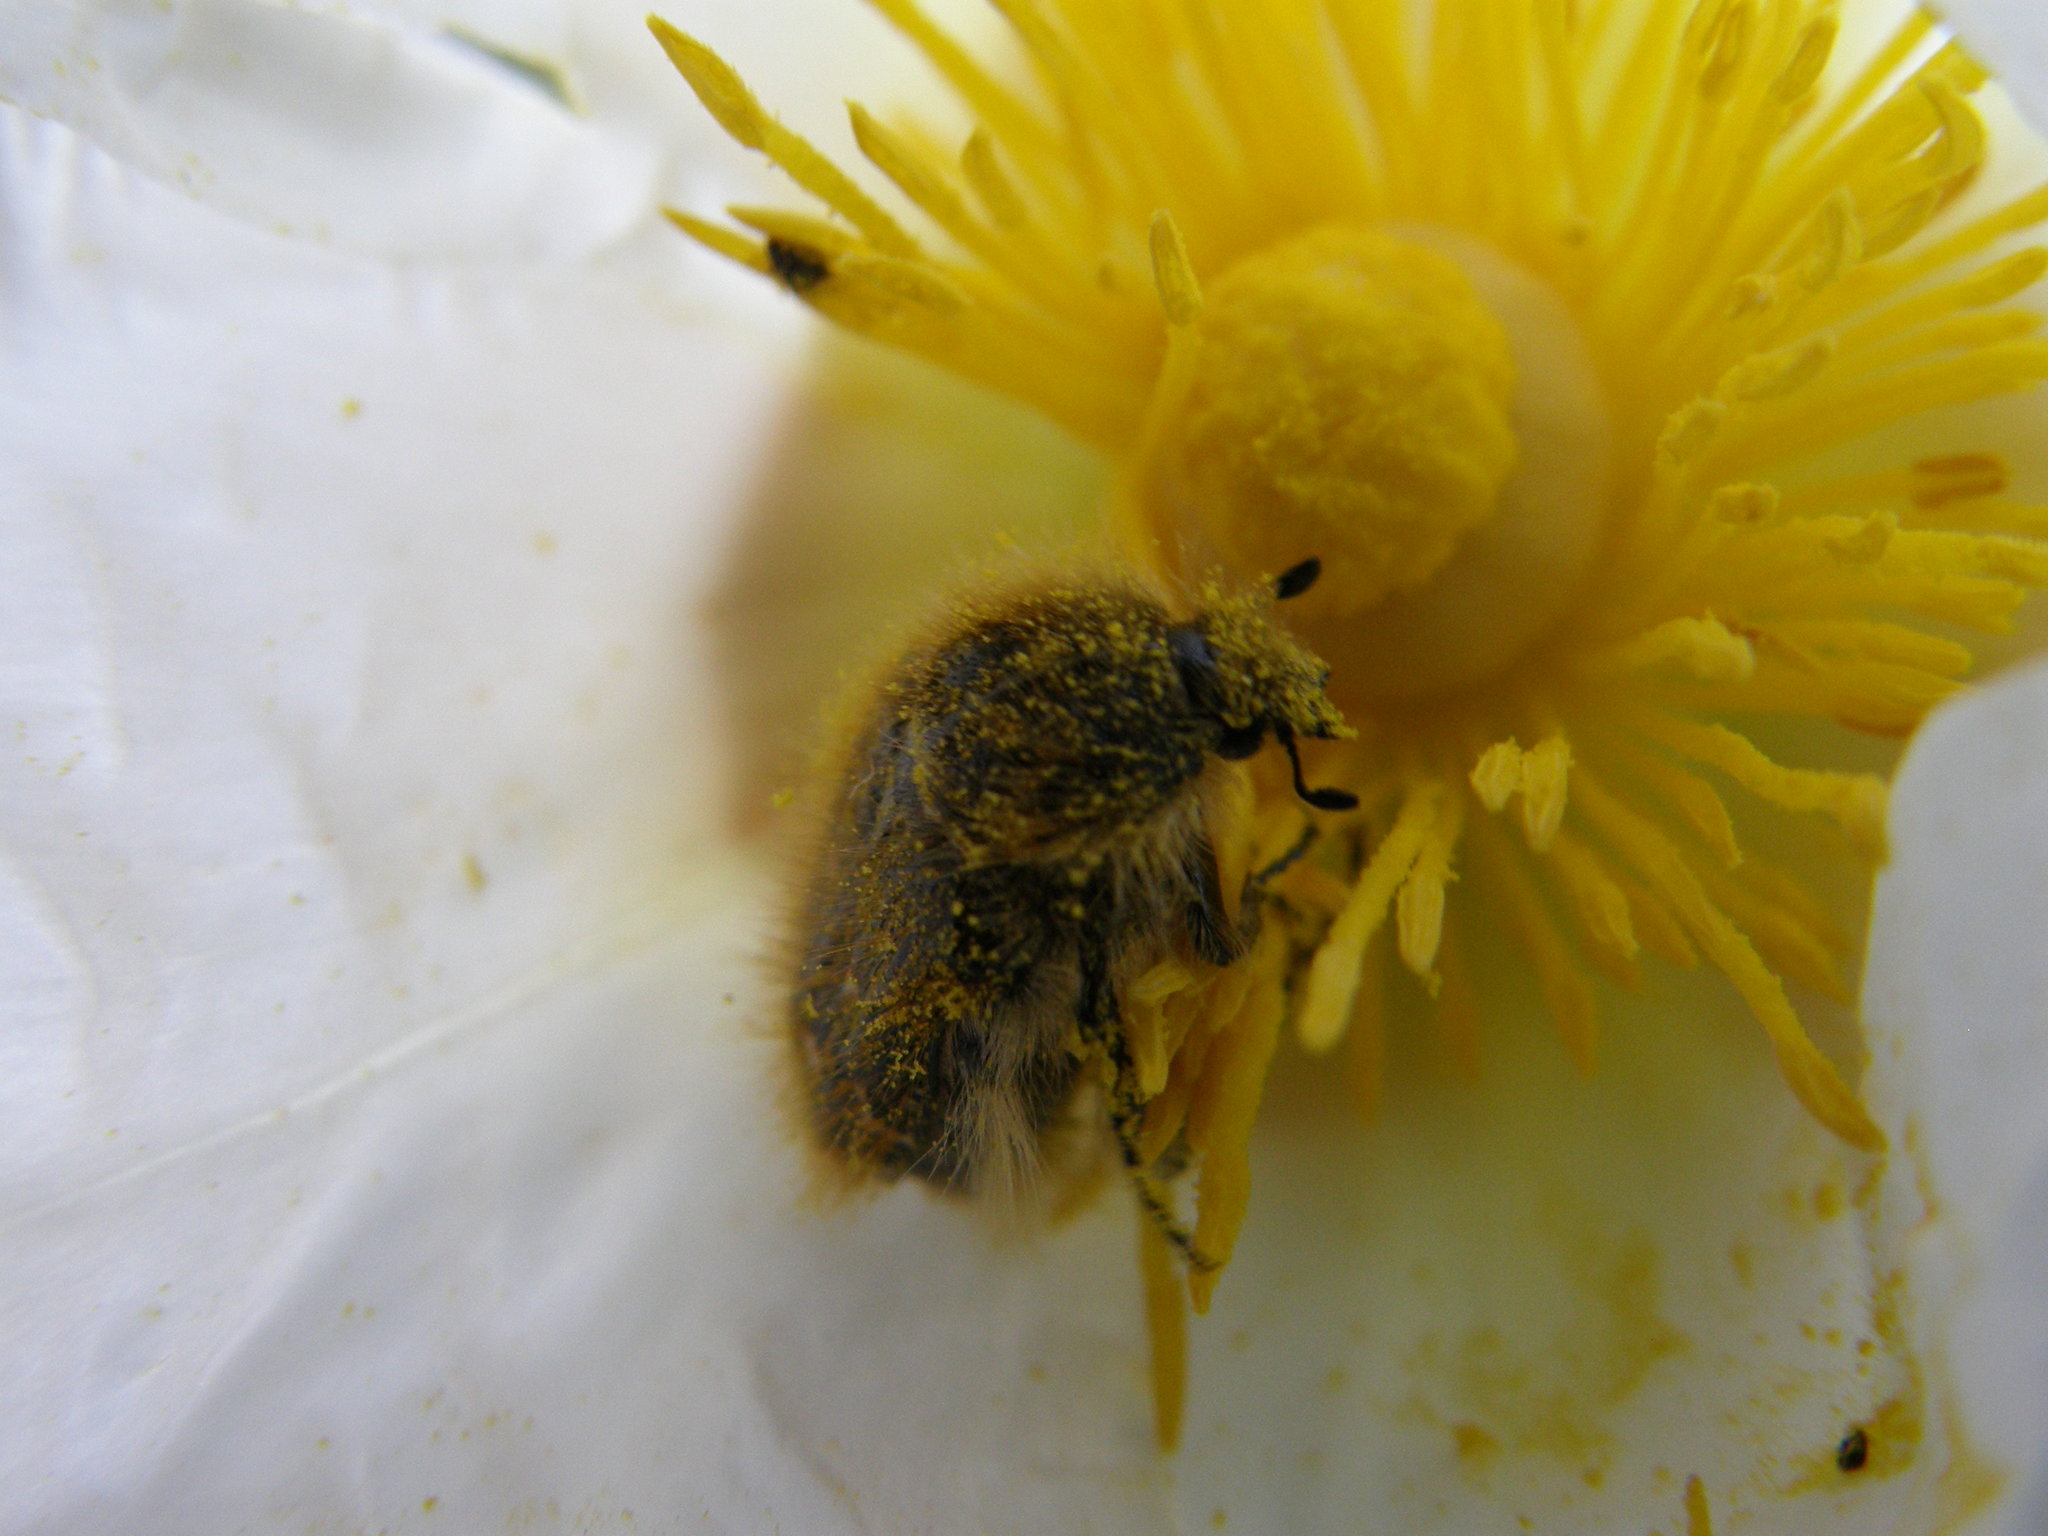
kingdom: Animalia
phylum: Arthropoda
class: Insecta
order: Coleoptera
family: Scarabaeidae
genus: Tropinota
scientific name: Tropinota squalida
